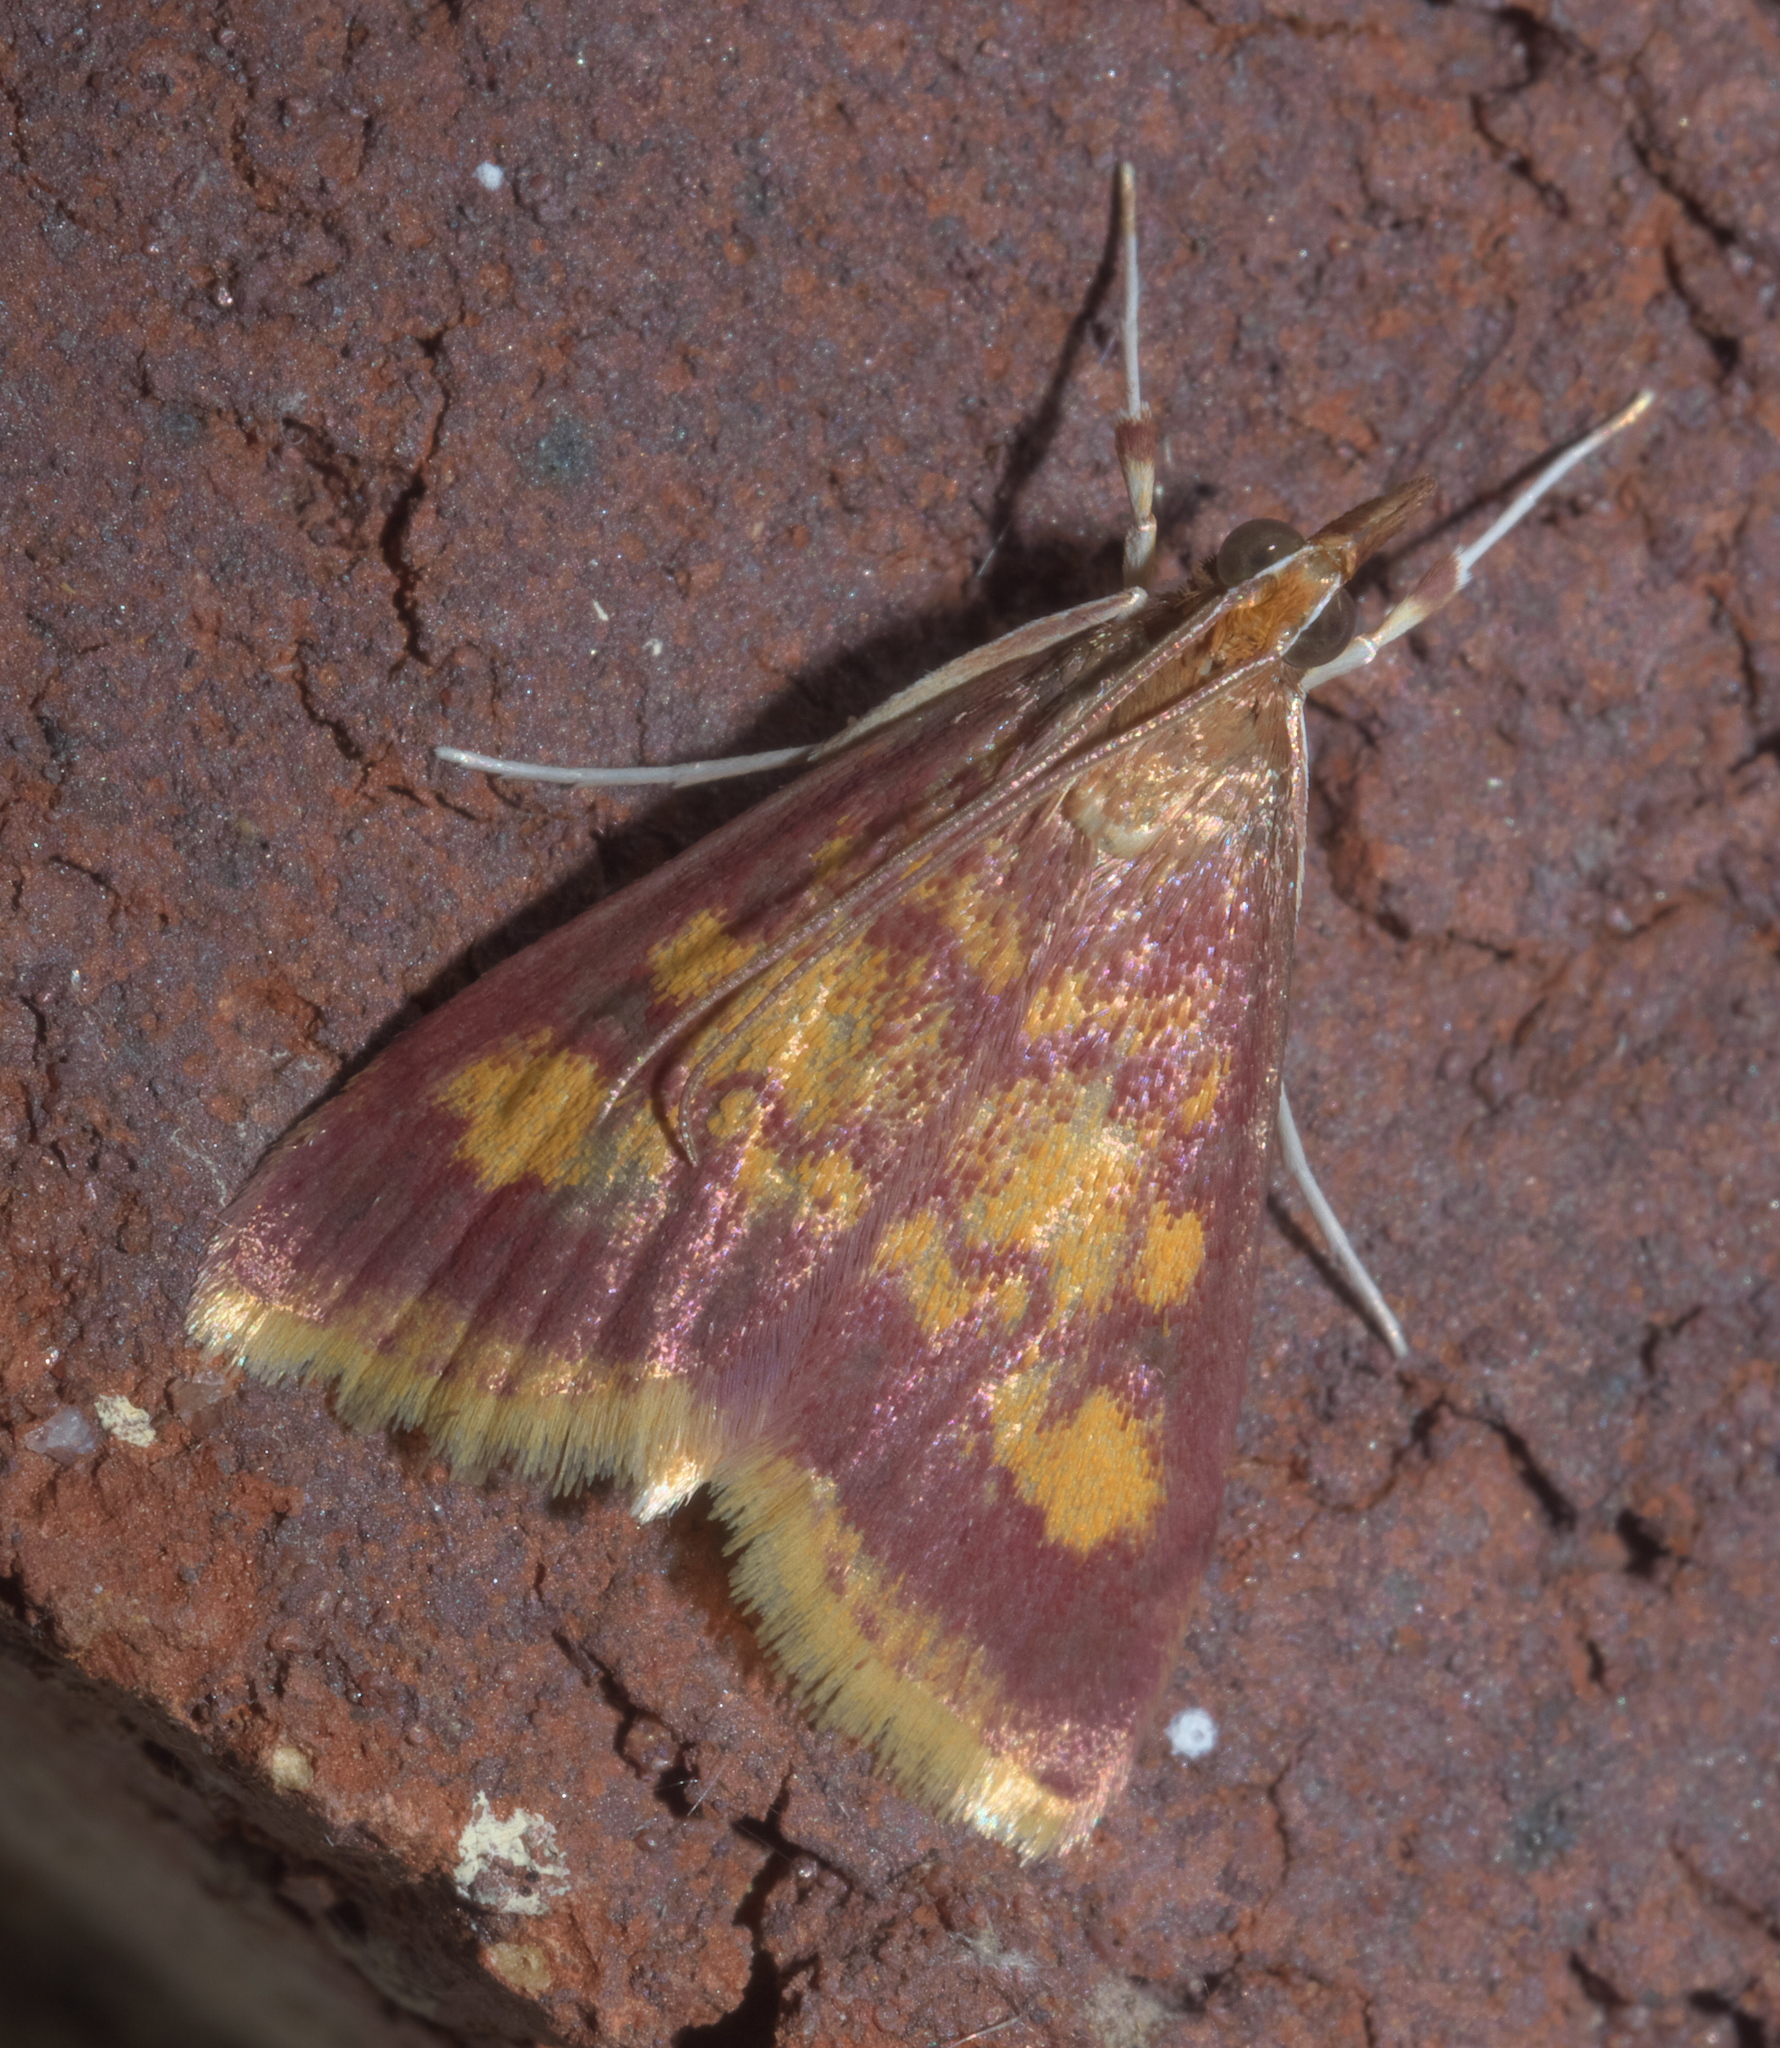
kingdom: Animalia
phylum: Arthropoda
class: Insecta
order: Lepidoptera
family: Crambidae
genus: Pyrausta
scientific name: Pyrausta acrionalis
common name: Mint-loving pyrausta moth
